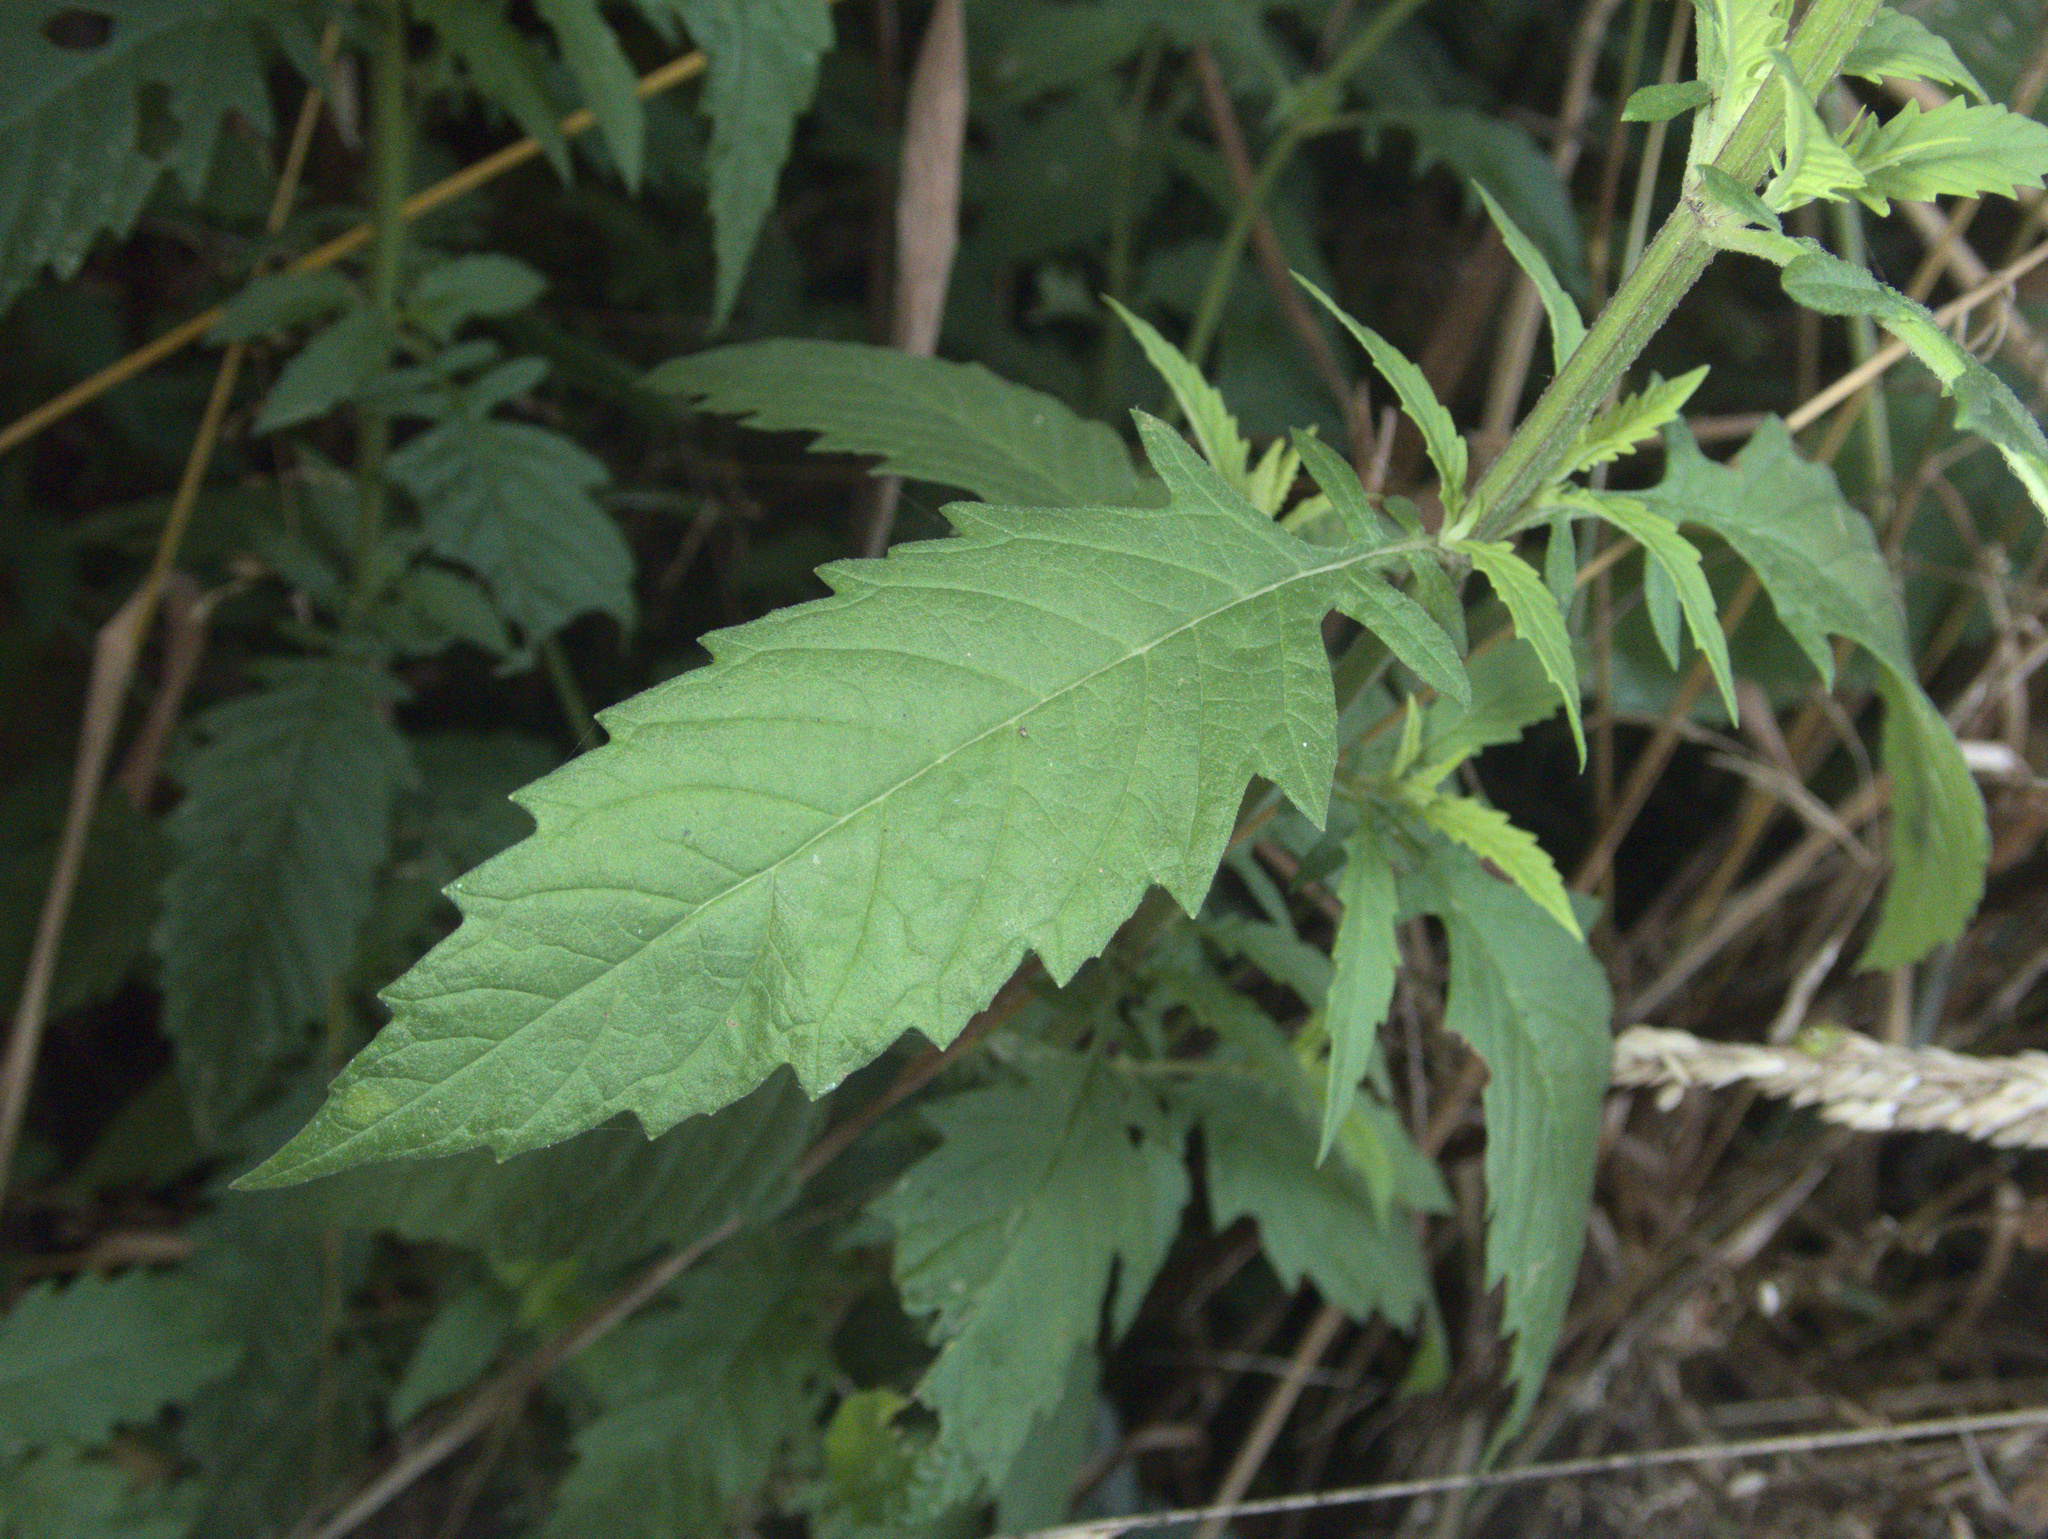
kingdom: Plantae
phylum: Tracheophyta
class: Magnoliopsida
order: Lamiales
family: Lamiaceae
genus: Lycopus
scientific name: Lycopus europaeus
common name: European bugleweed
